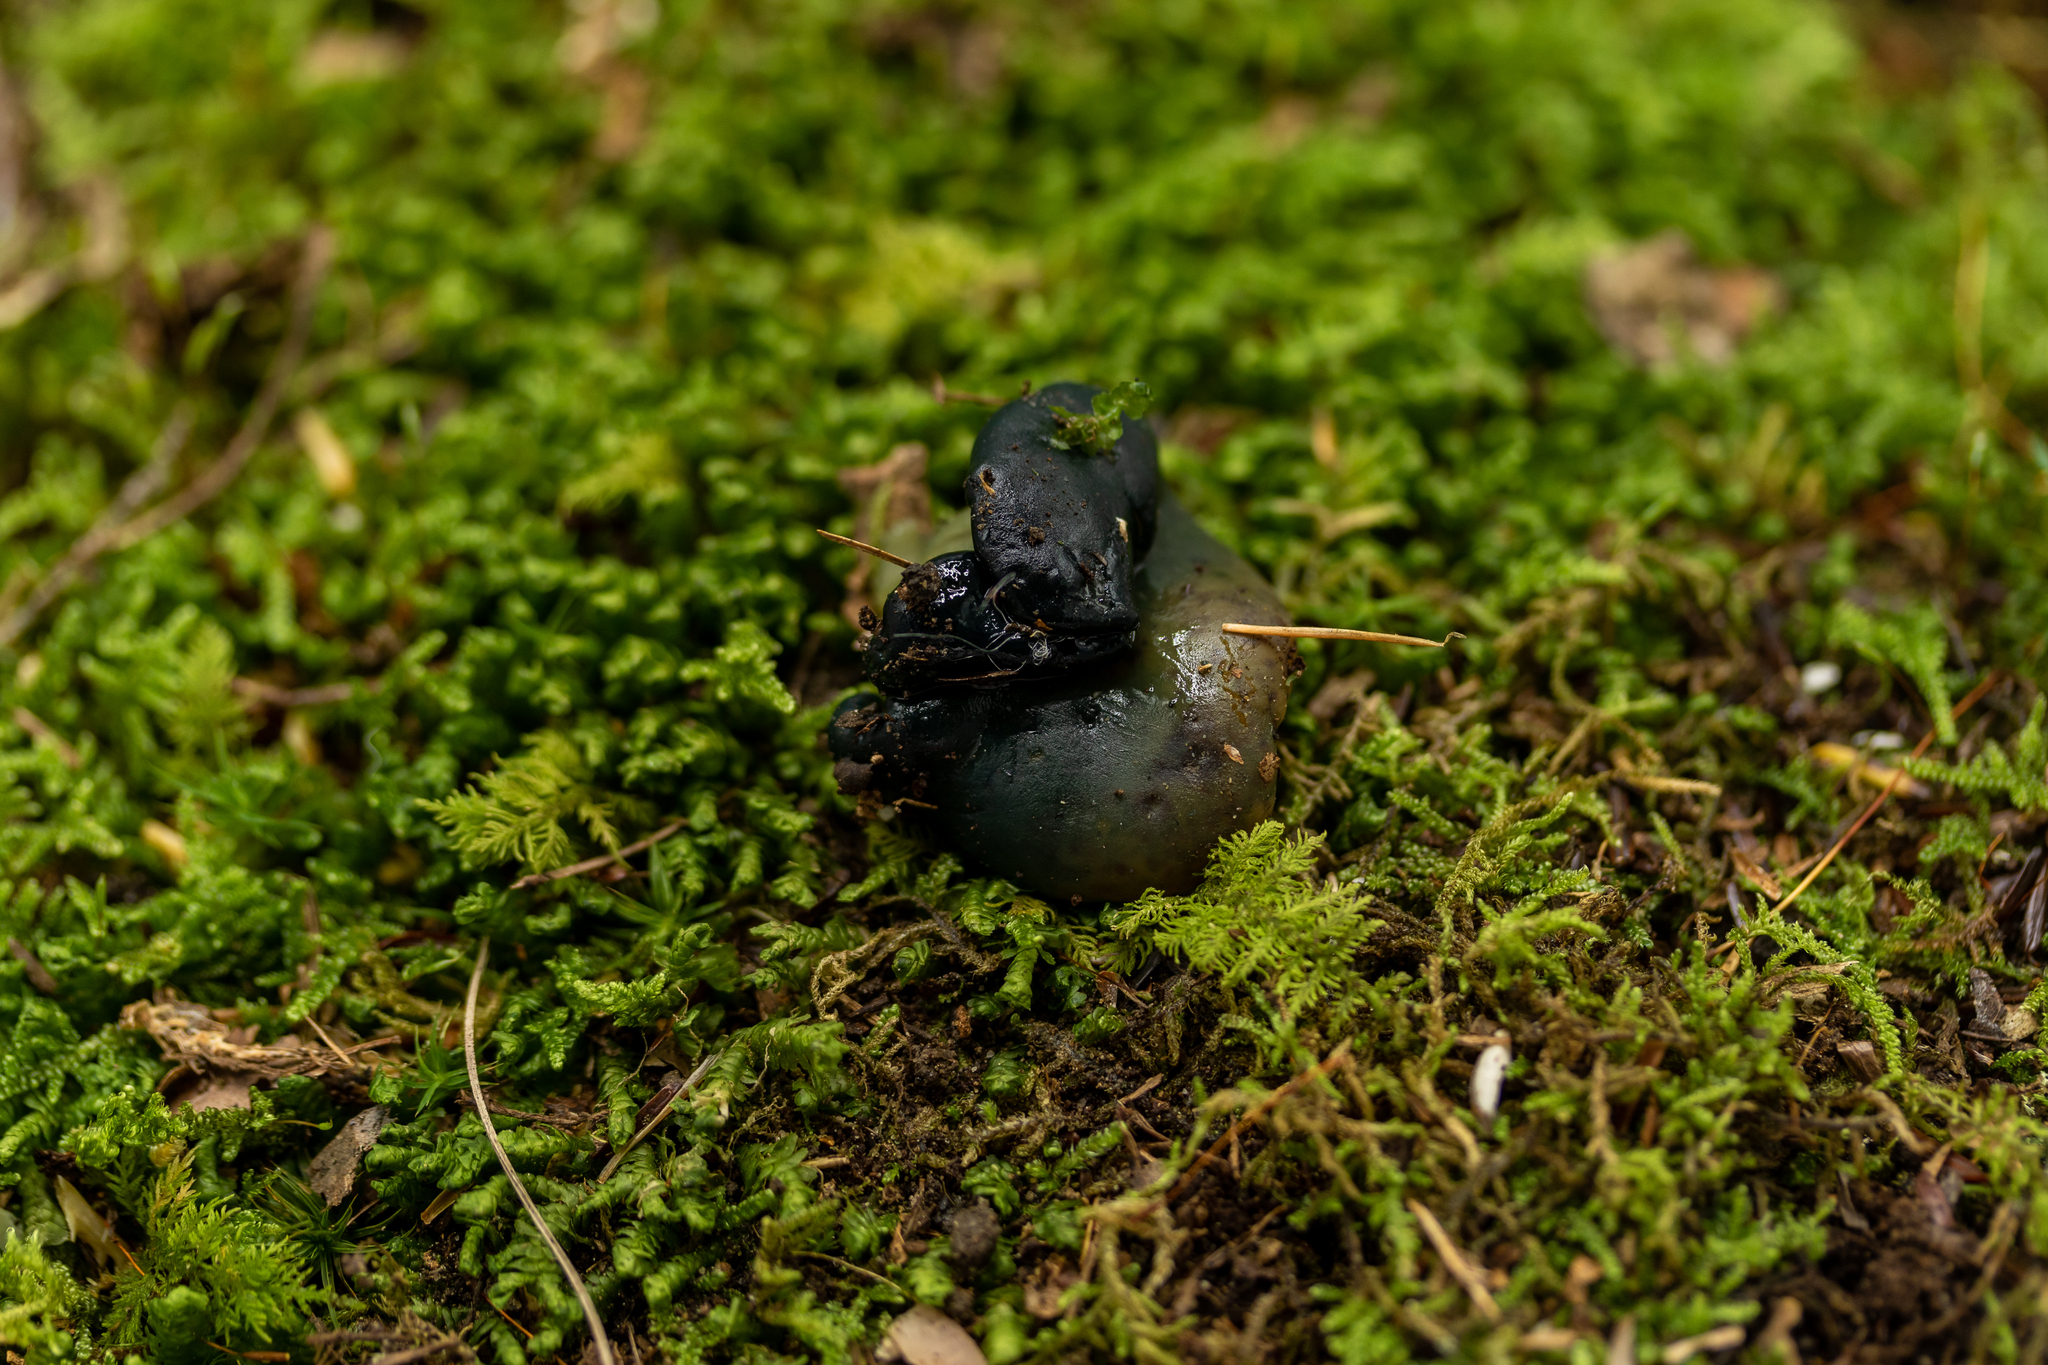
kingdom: Fungi
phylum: Ascomycota
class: Leotiomycetes
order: Leotiales
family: Leotiaceae
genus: Leotia
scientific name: Leotia lubrica
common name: Jellybaby
